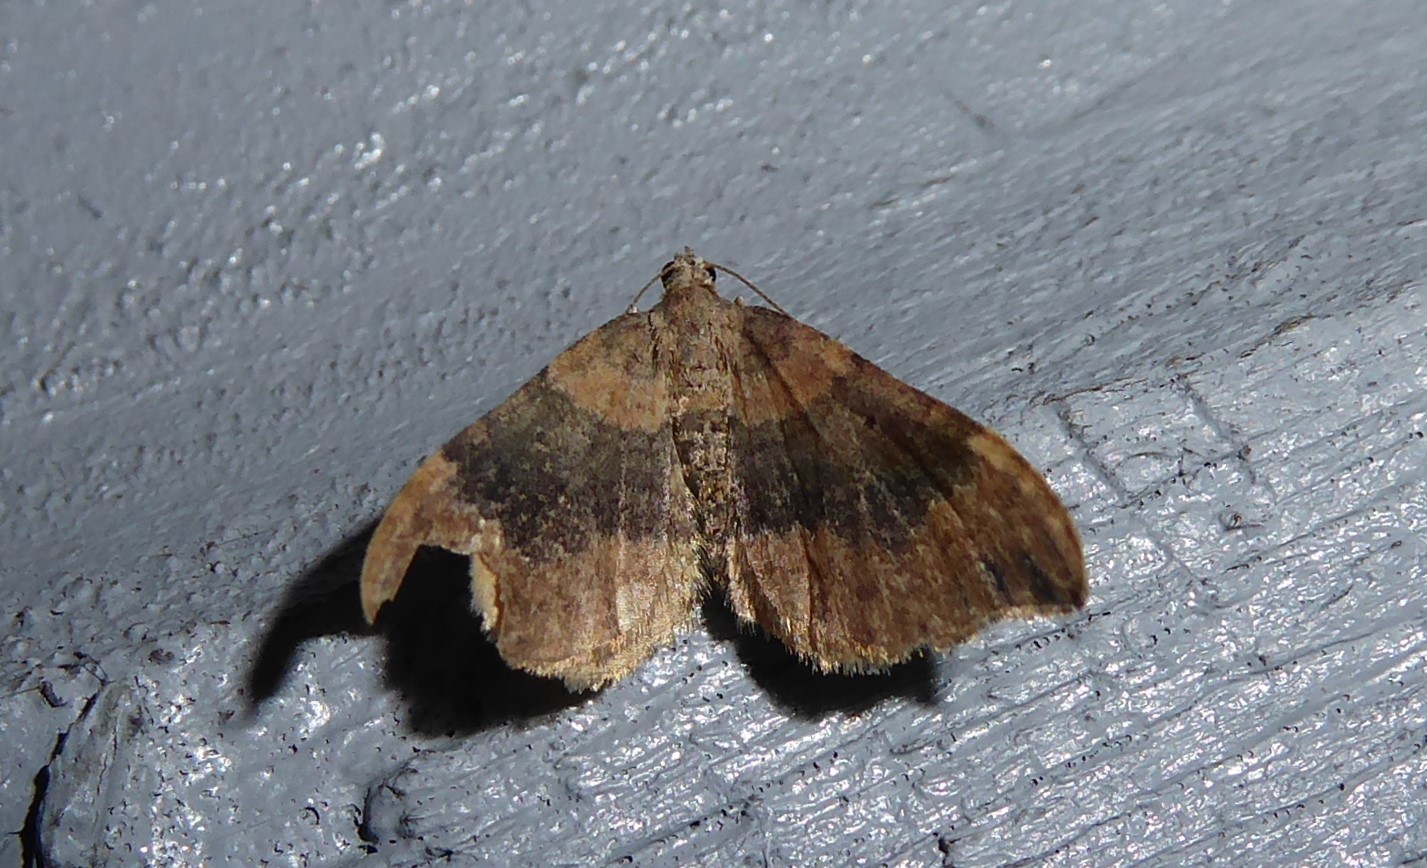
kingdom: Animalia
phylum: Arthropoda
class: Insecta
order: Lepidoptera
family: Geometridae
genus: Homodotis
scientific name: Homodotis megaspilata
